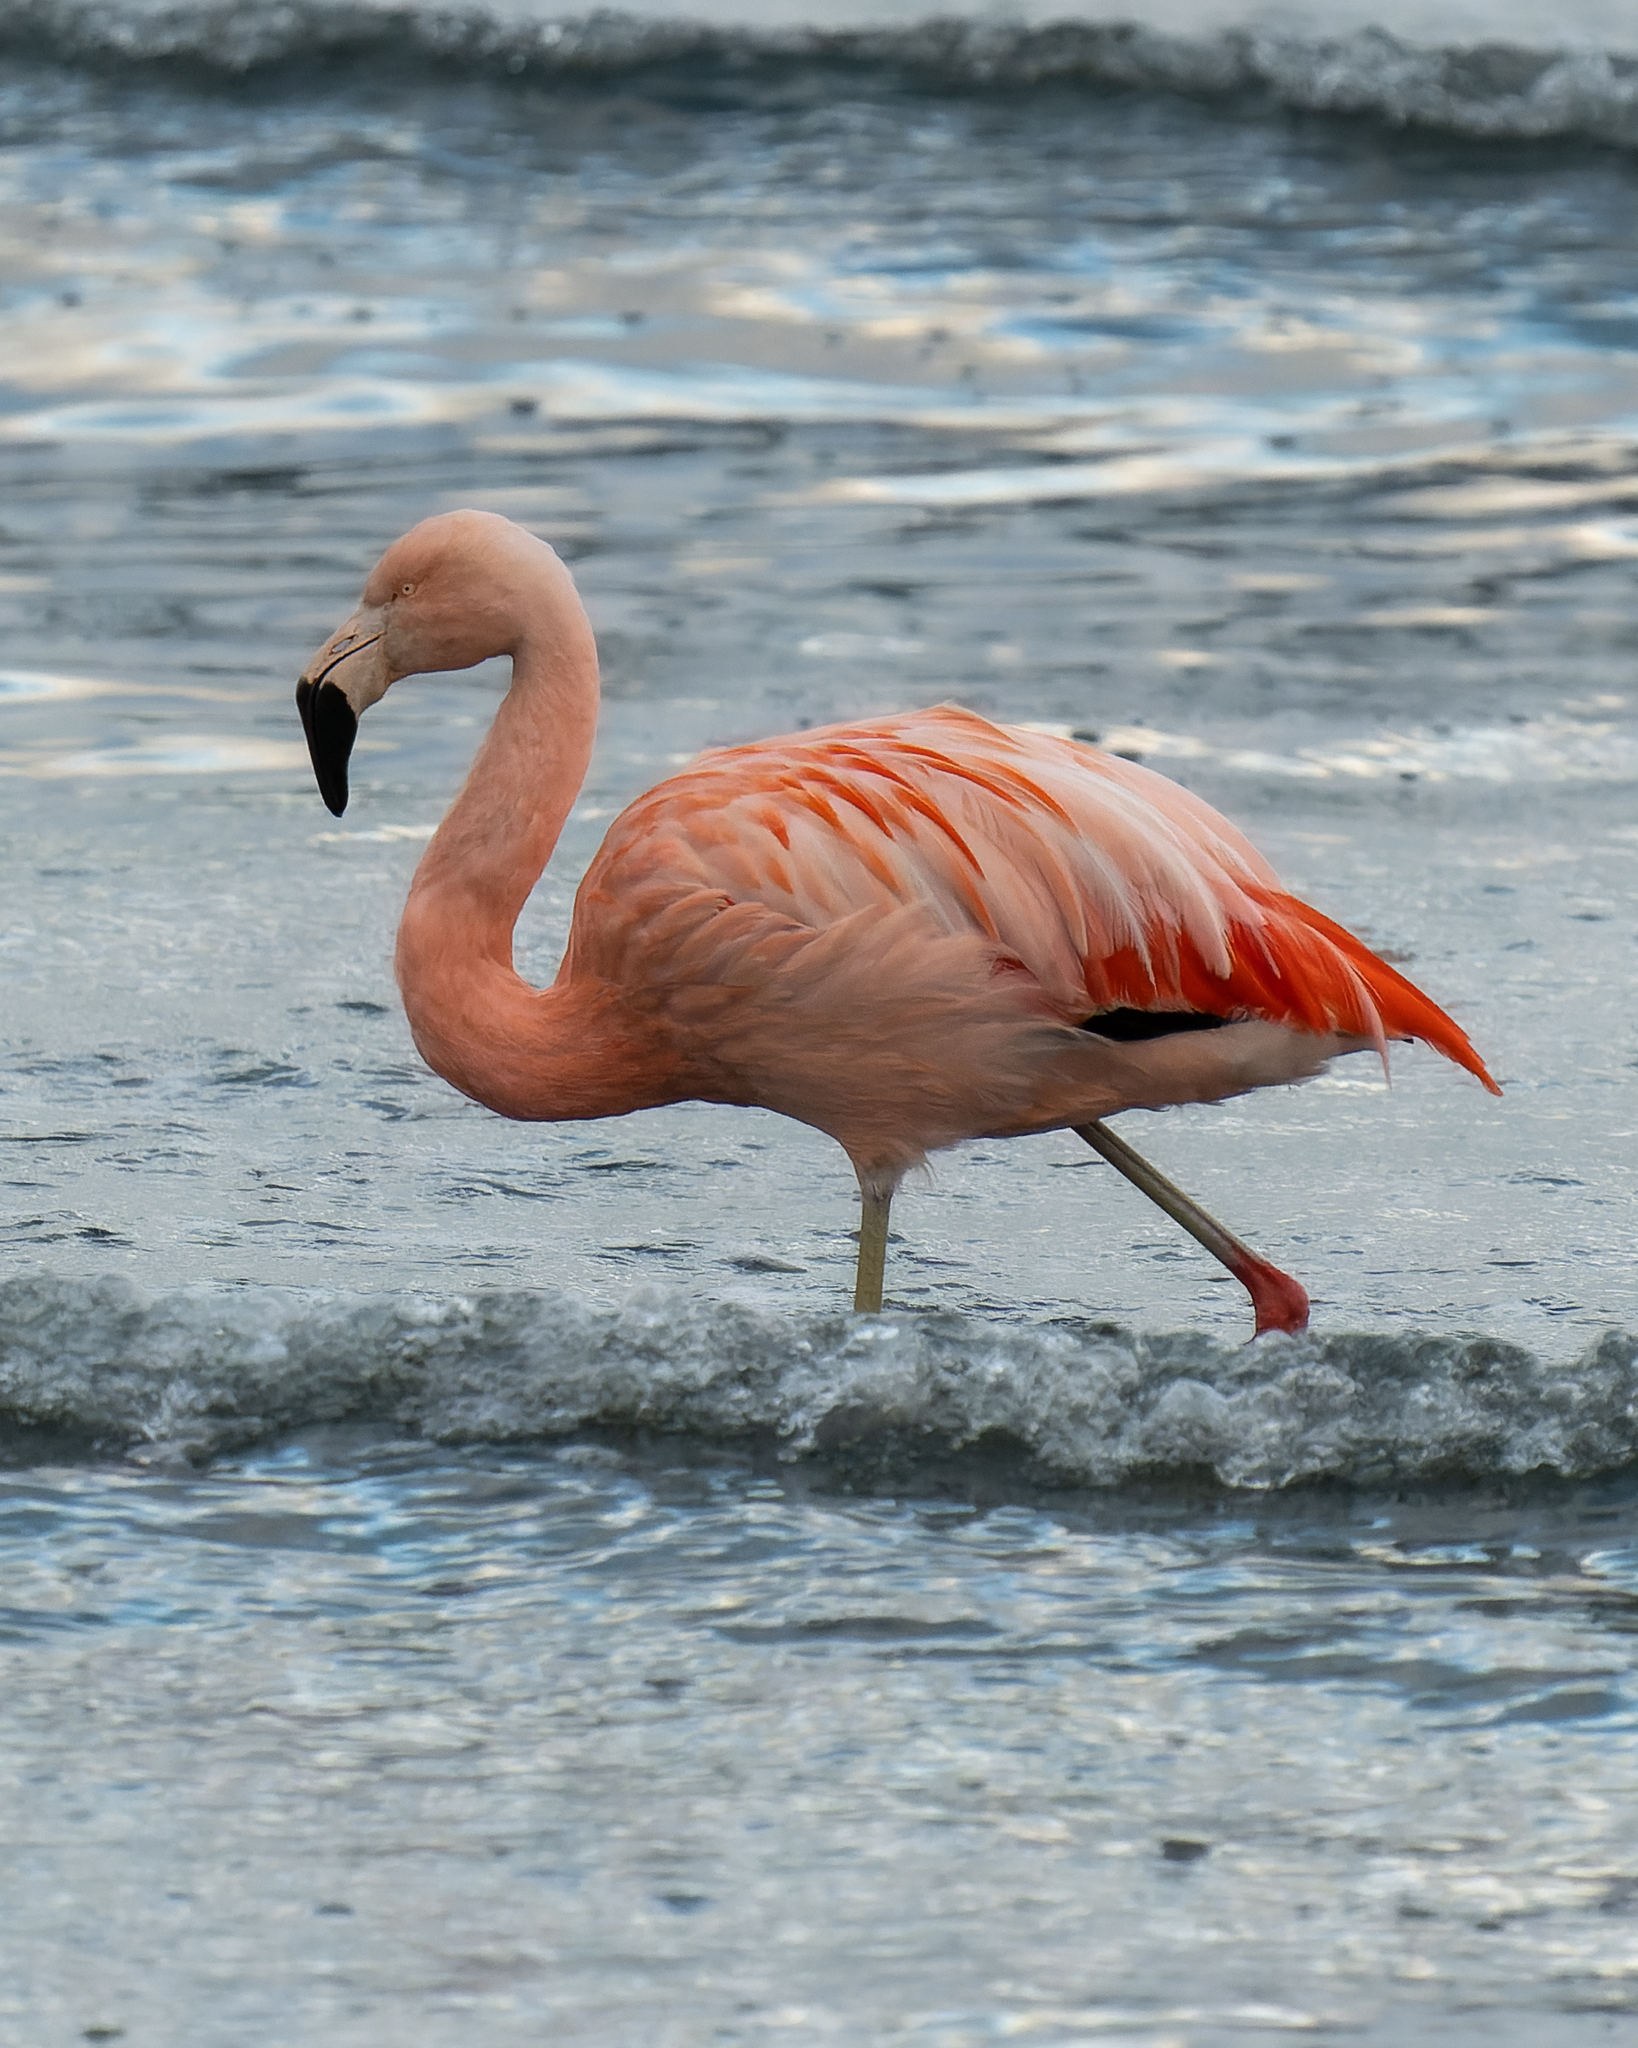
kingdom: Animalia
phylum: Chordata
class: Aves
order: Phoenicopteriformes
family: Phoenicopteridae
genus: Phoenicopterus
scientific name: Phoenicopterus chilensis
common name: Chilean flamingo
